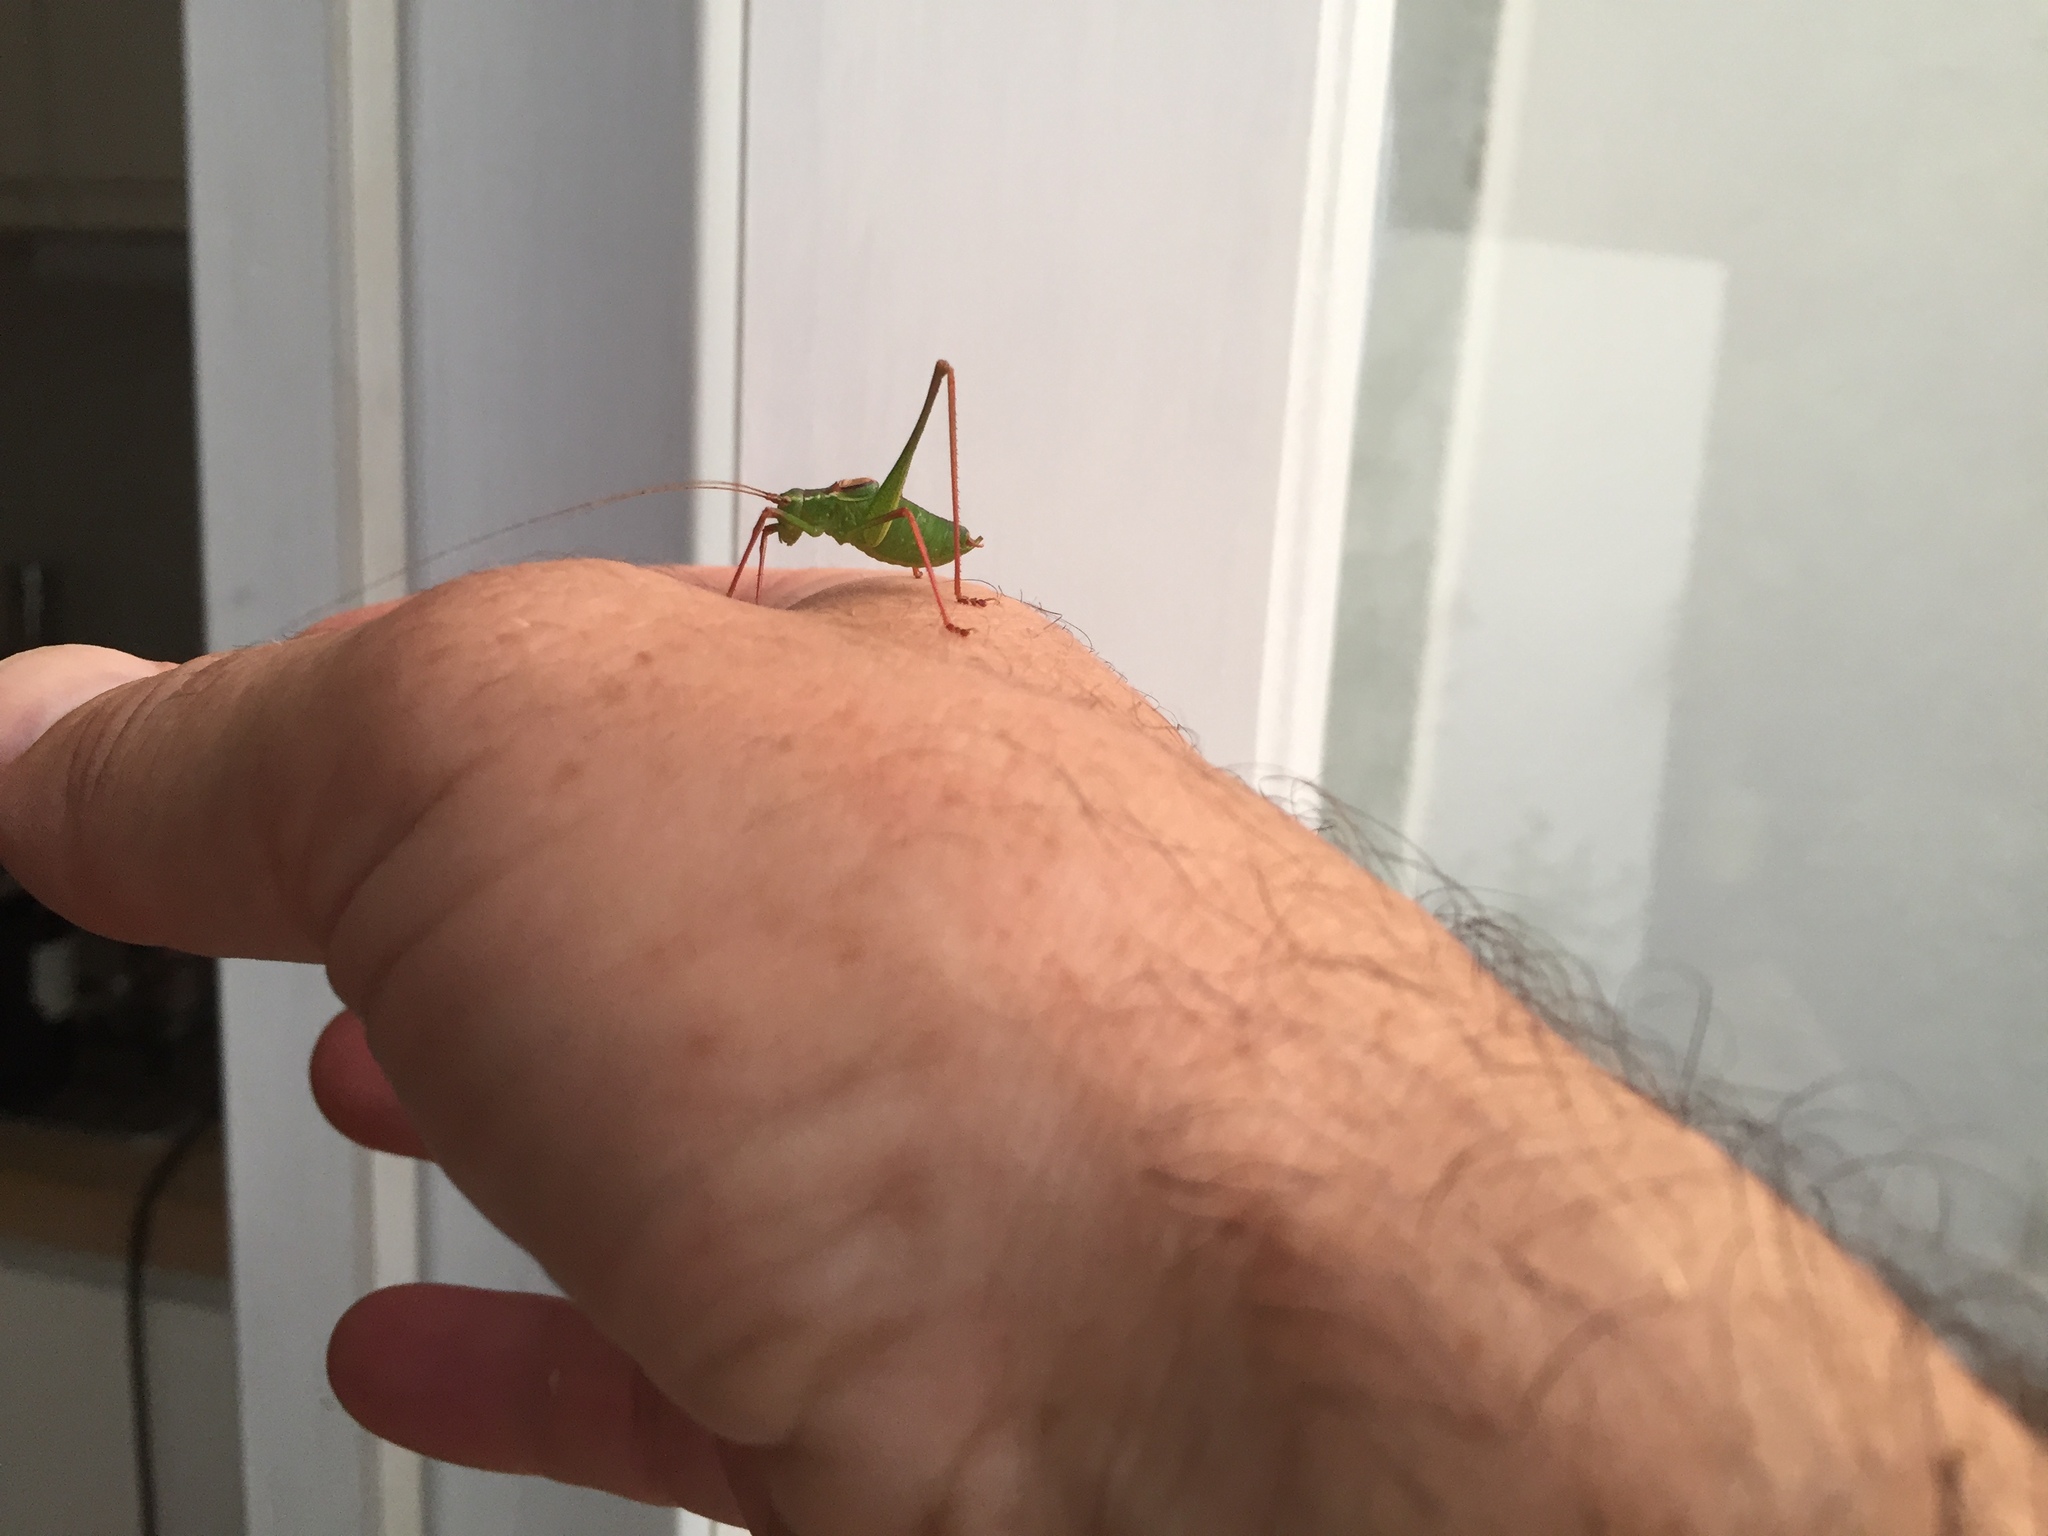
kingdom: Animalia
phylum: Arthropoda
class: Insecta
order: Orthoptera
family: Tettigoniidae
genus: Leptophyes
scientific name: Leptophyes punctatissima
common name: Speckled bush-cricket
